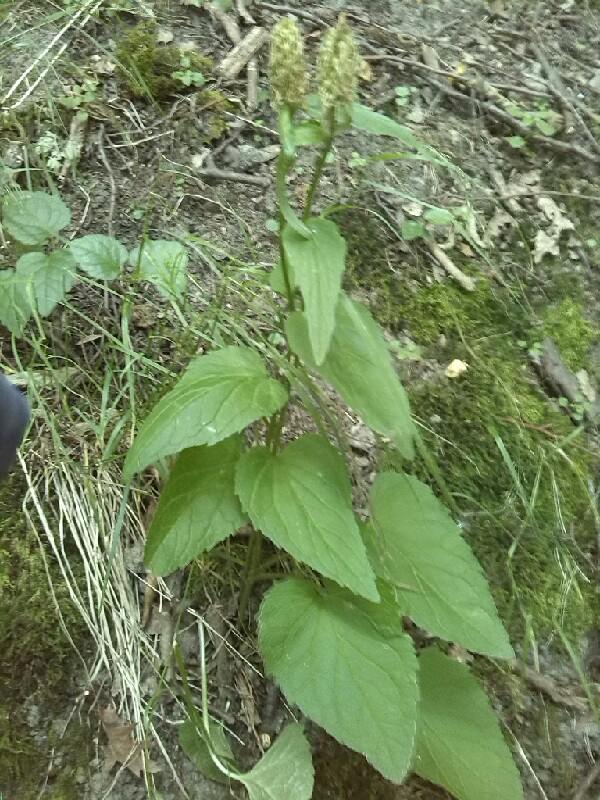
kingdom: Plantae
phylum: Tracheophyta
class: Magnoliopsida
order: Asterales
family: Campanulaceae
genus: Phyteuma
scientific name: Phyteuma spicatum
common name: Spiked rampion
